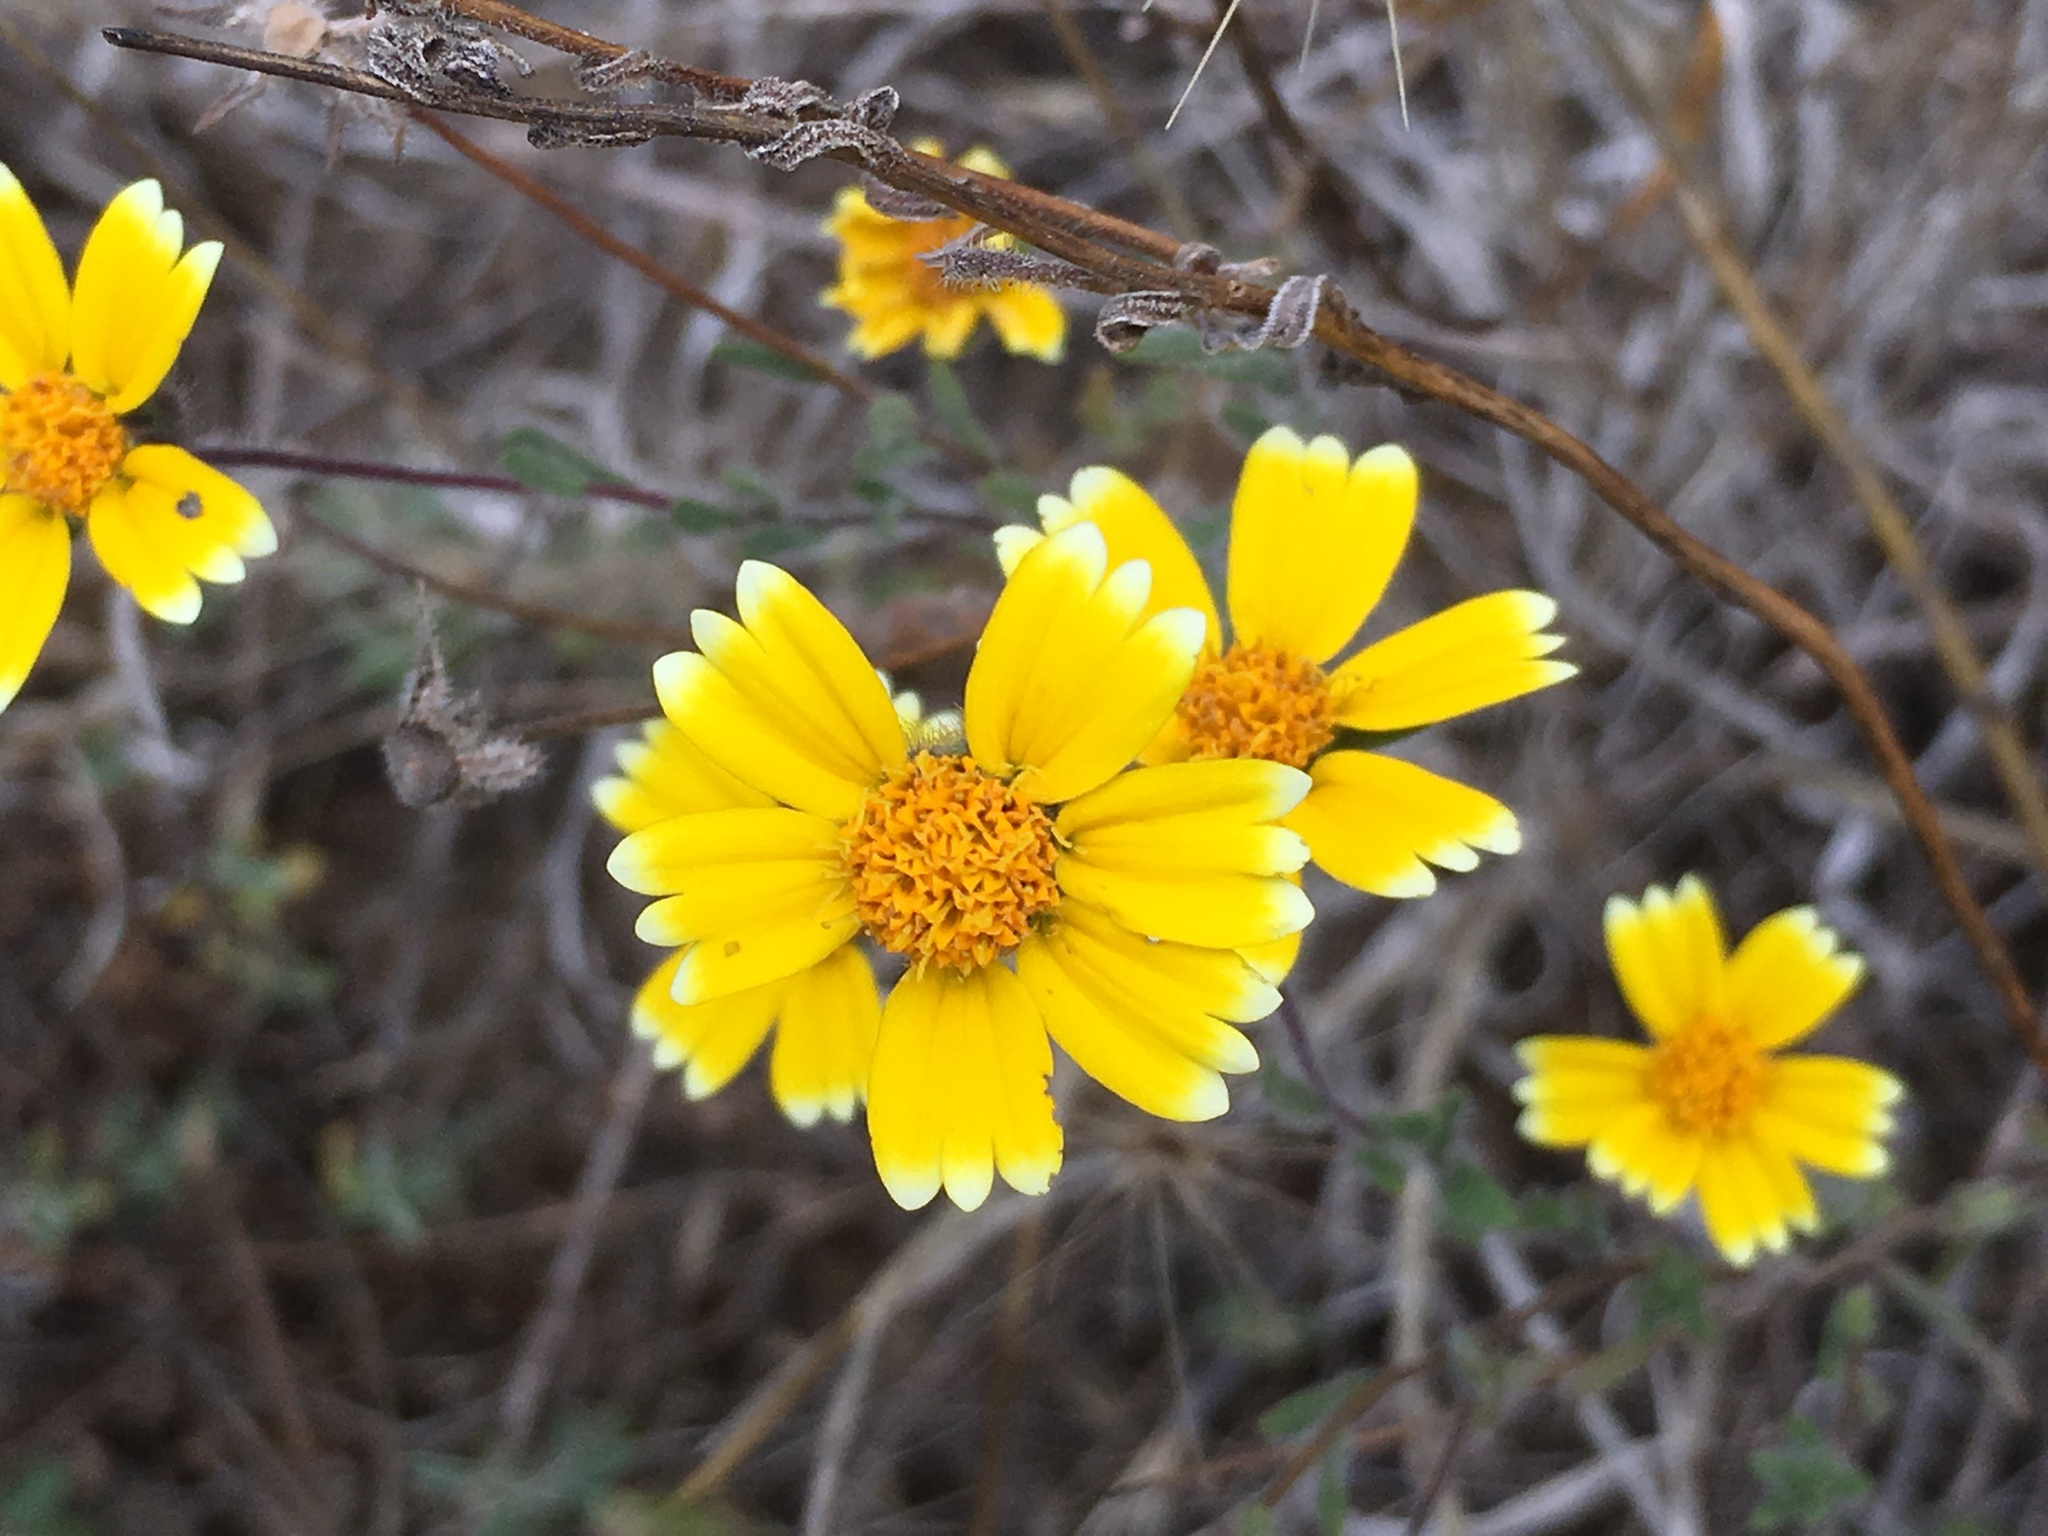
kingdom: Plantae
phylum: Tracheophyta
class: Magnoliopsida
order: Asterales
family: Asteraceae
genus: Layia
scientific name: Layia platyglossa
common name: Tidy-tips
